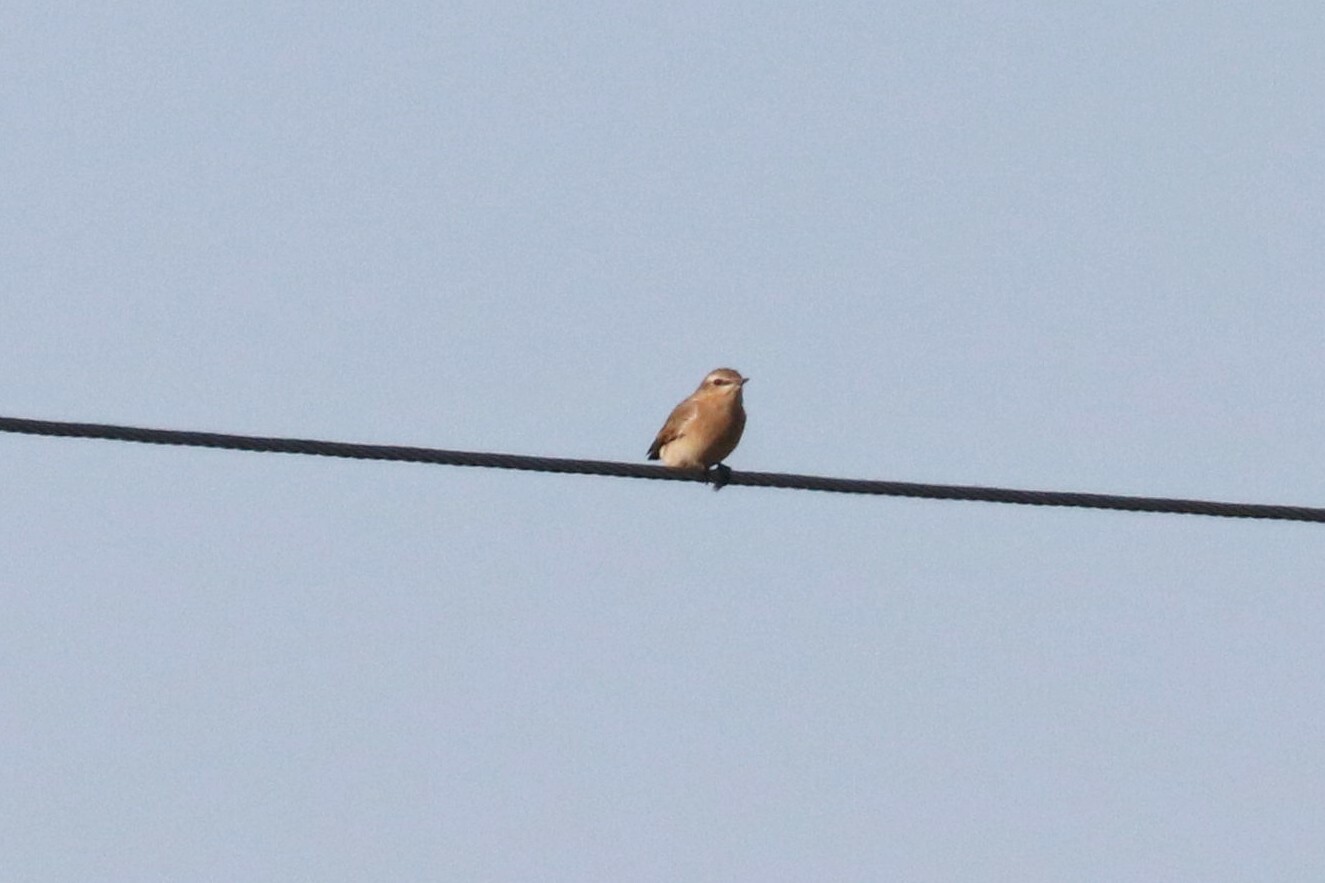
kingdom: Animalia
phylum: Chordata
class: Aves
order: Passeriformes
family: Muscicapidae
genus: Oenanthe
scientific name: Oenanthe oenanthe
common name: Northern wheatear
